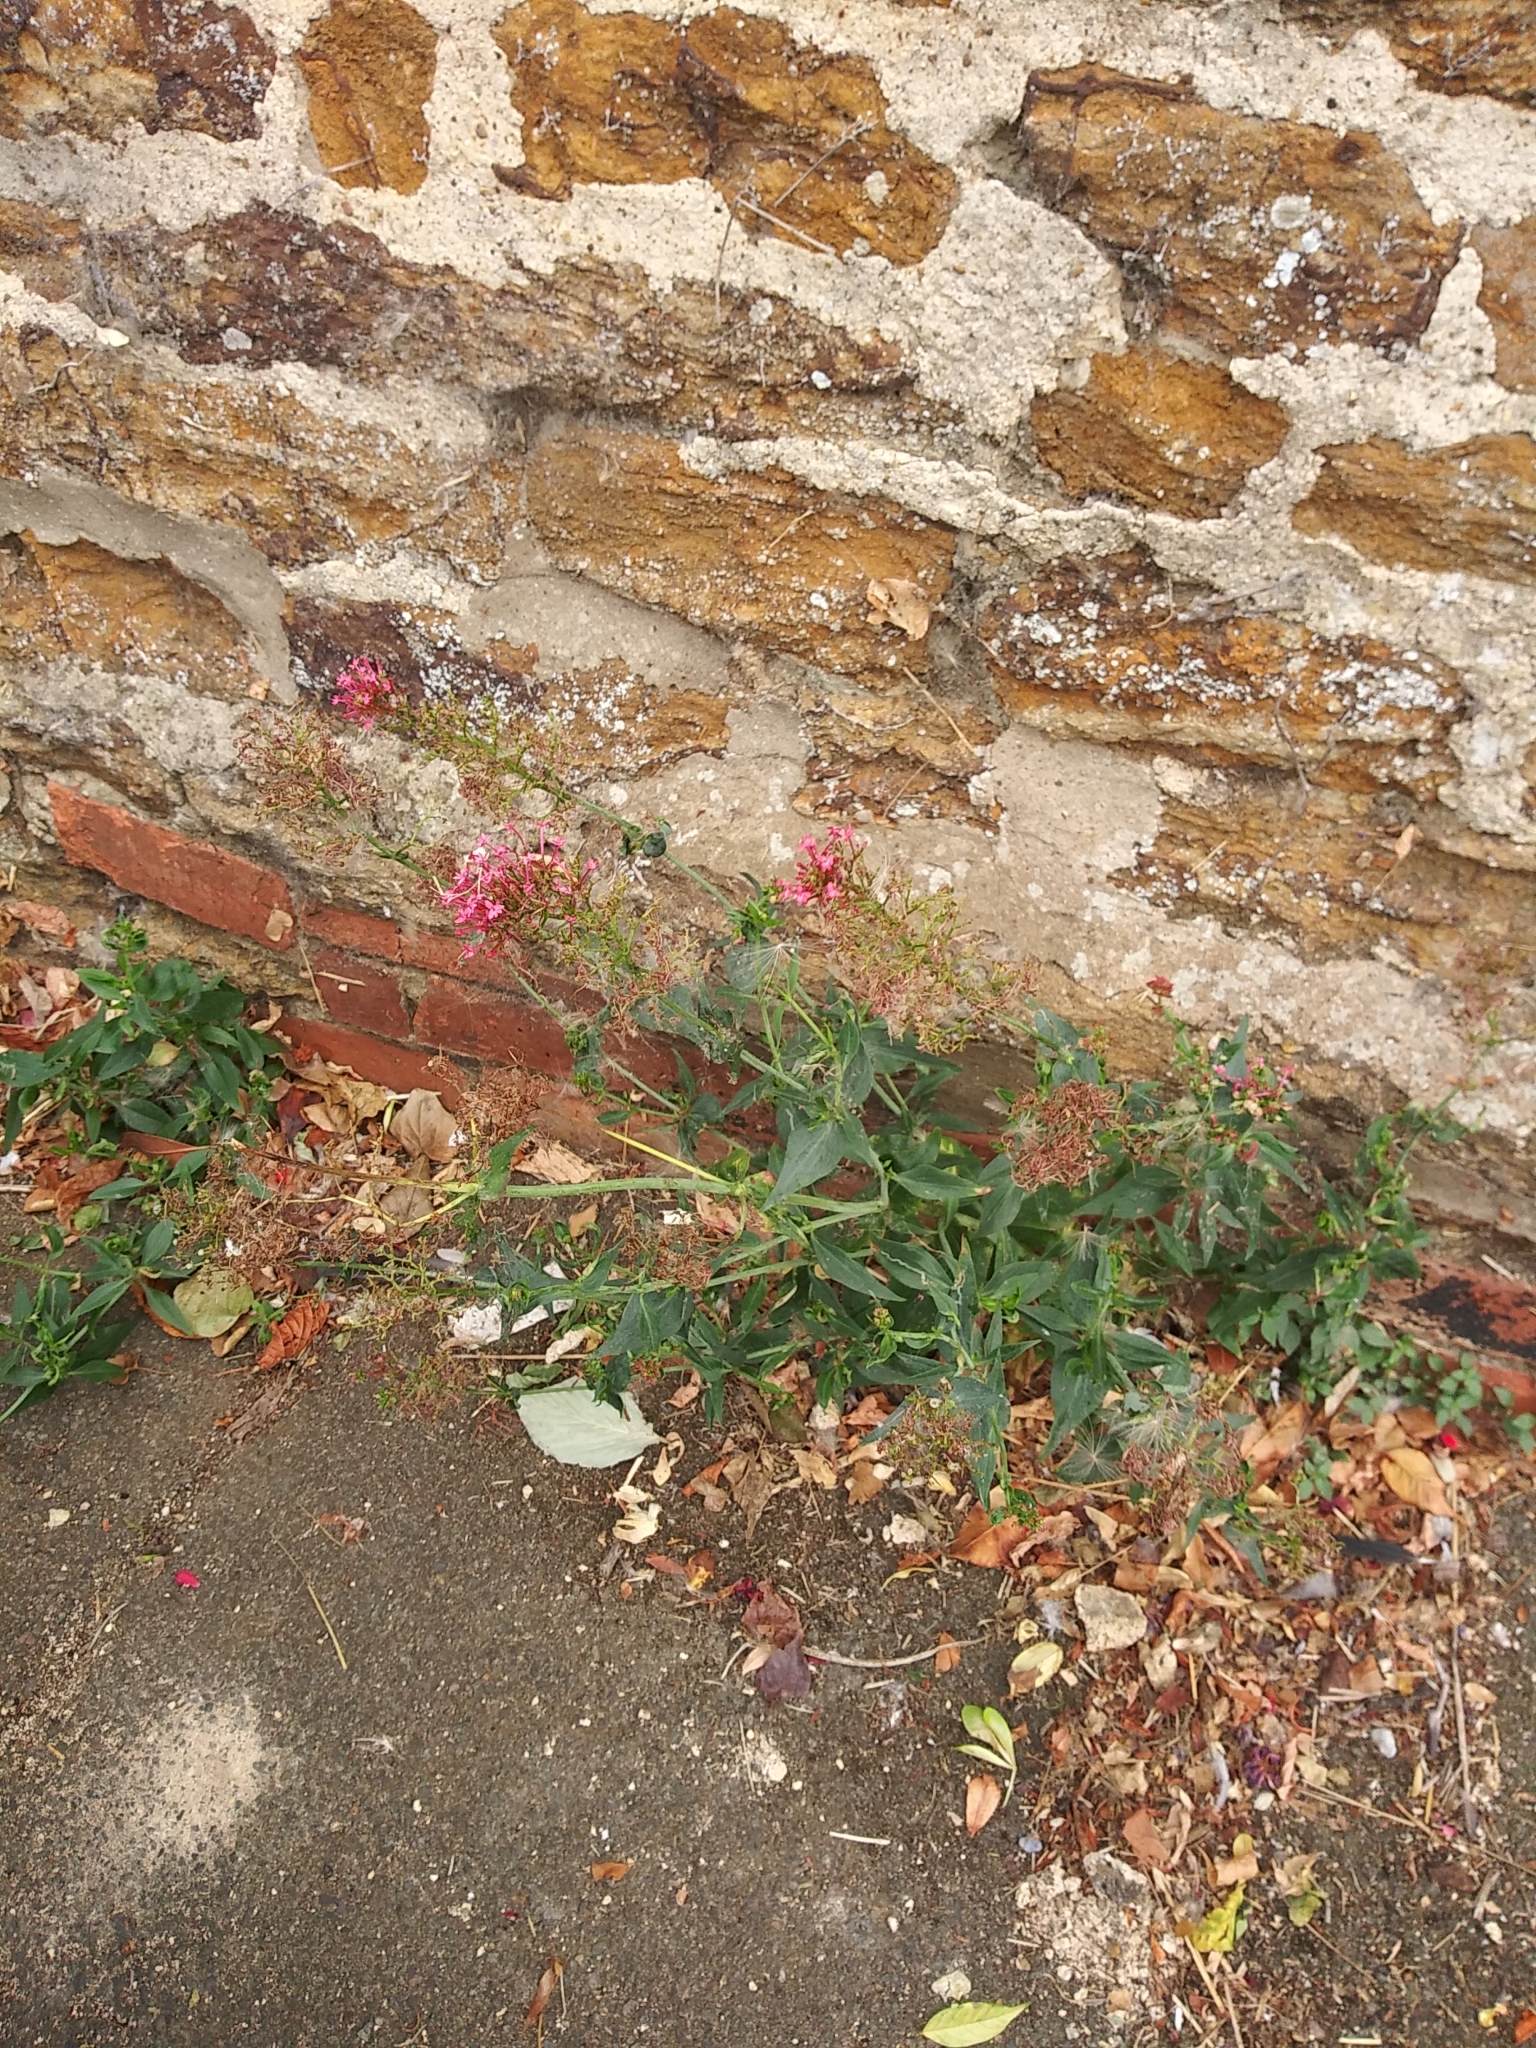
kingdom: Plantae
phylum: Tracheophyta
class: Magnoliopsida
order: Dipsacales
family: Caprifoliaceae
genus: Centranthus
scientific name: Centranthus ruber
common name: Red valerian
